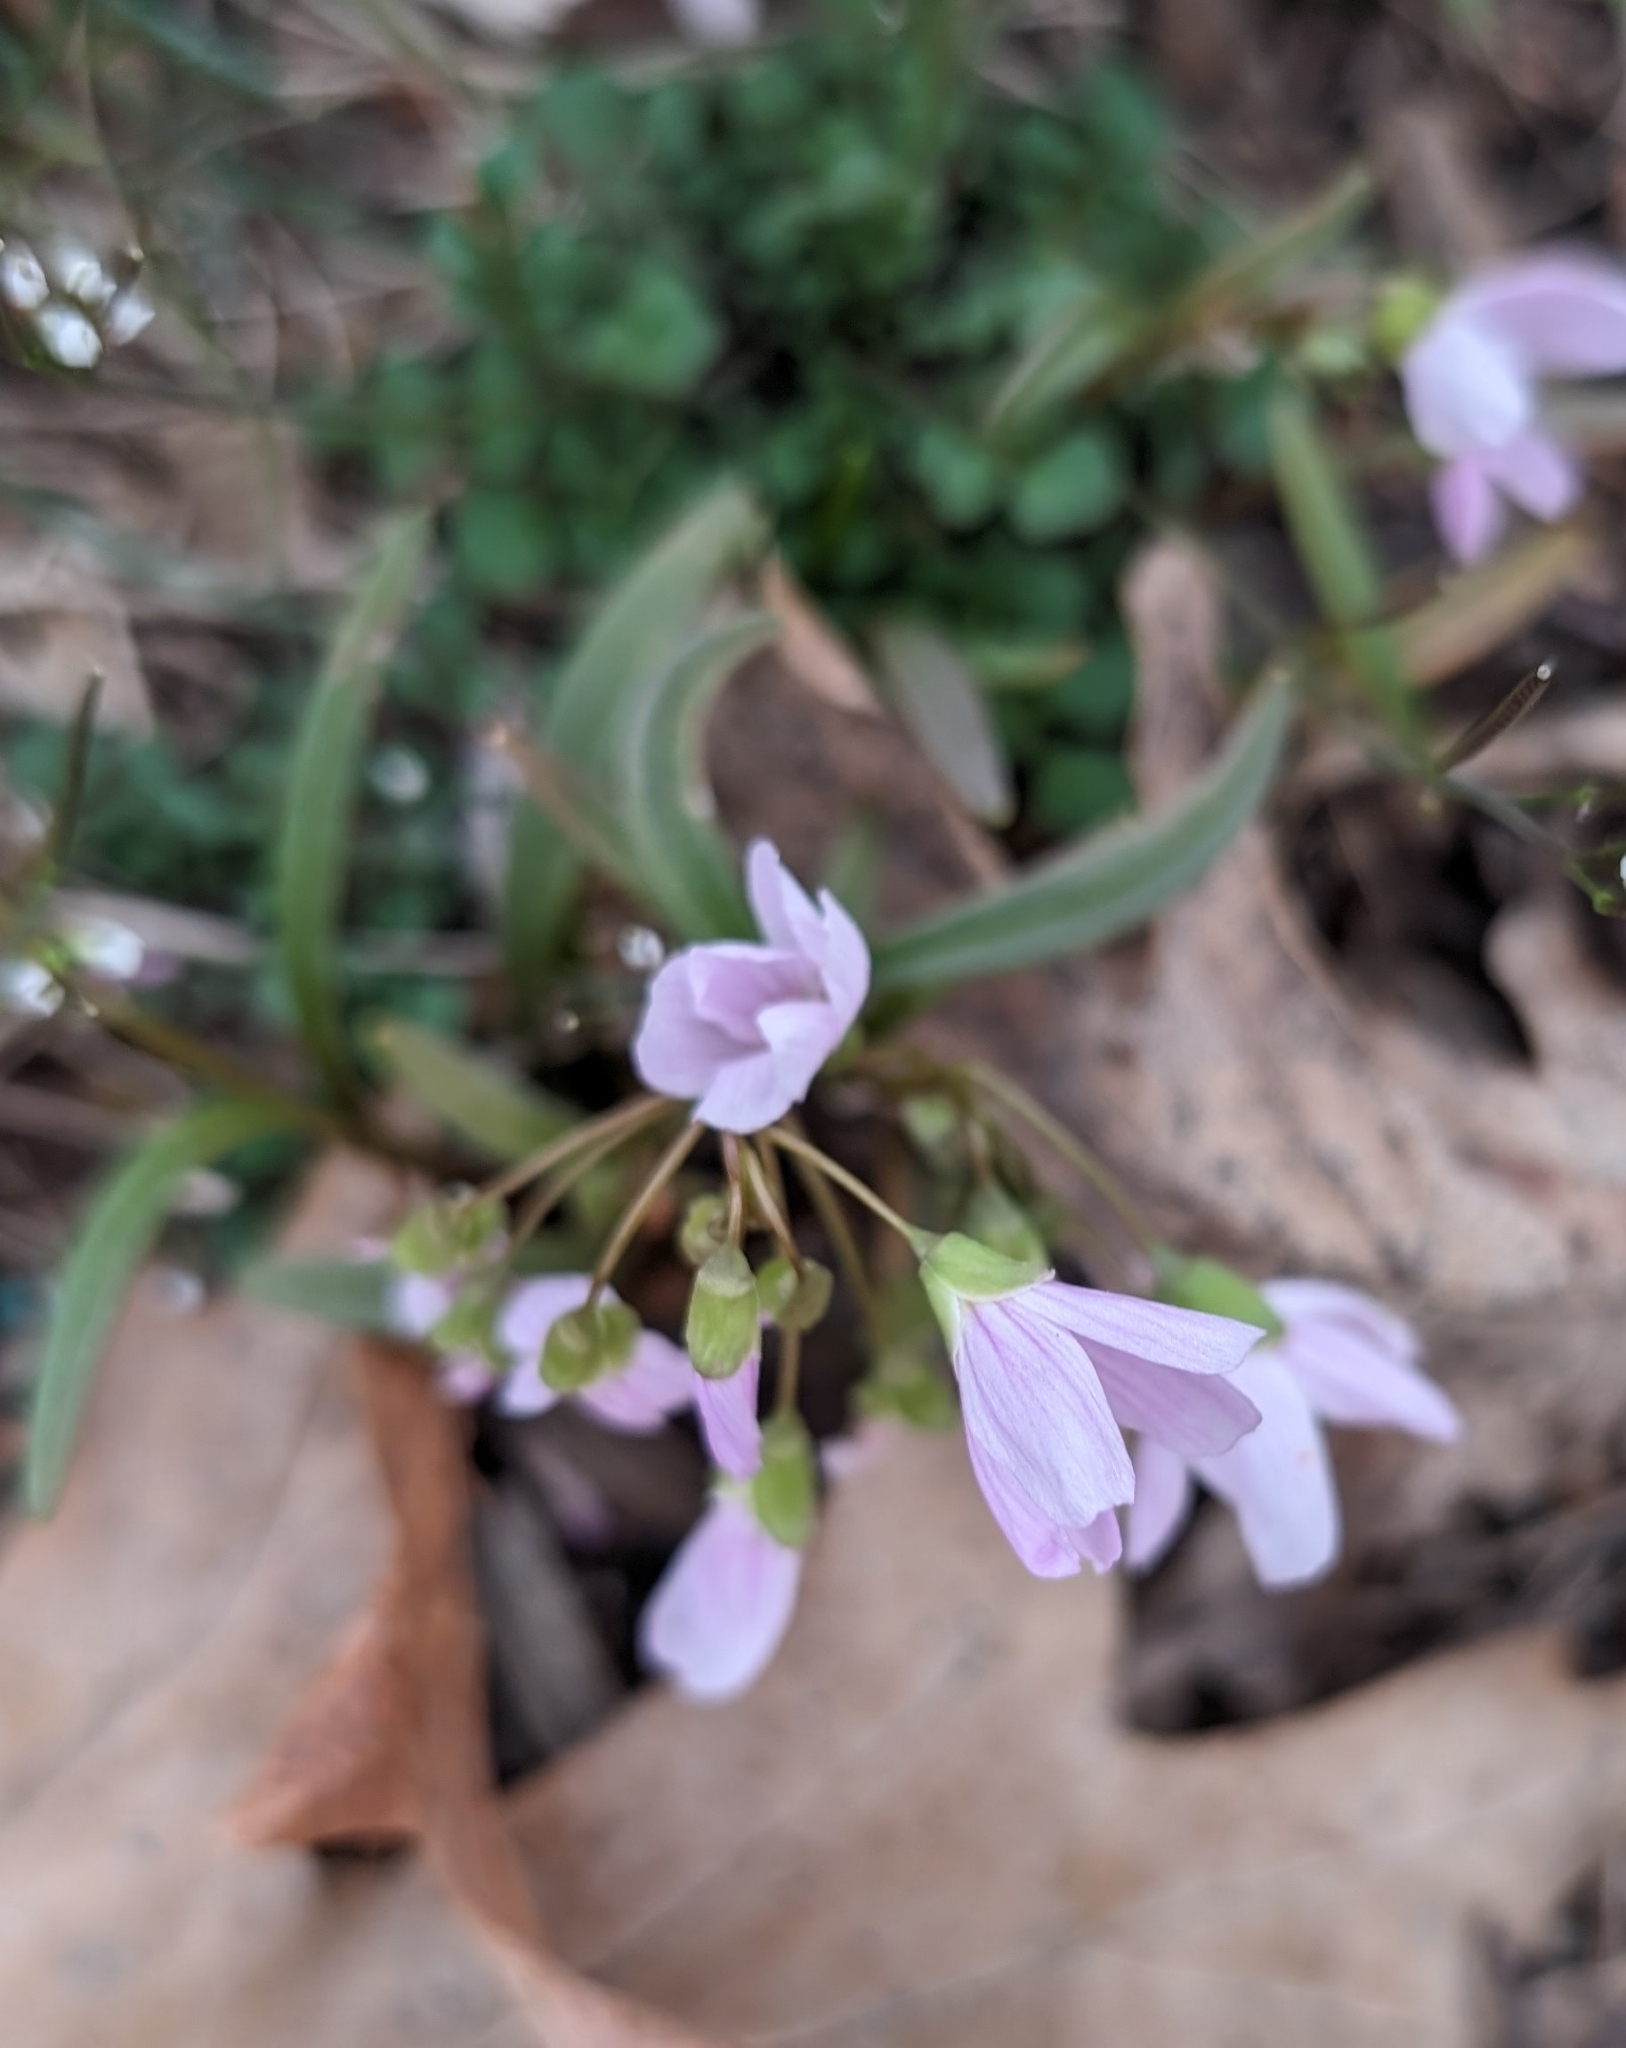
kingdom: Plantae
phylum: Tracheophyta
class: Magnoliopsida
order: Caryophyllales
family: Montiaceae
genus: Claytonia
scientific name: Claytonia virginica
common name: Virginia springbeauty
